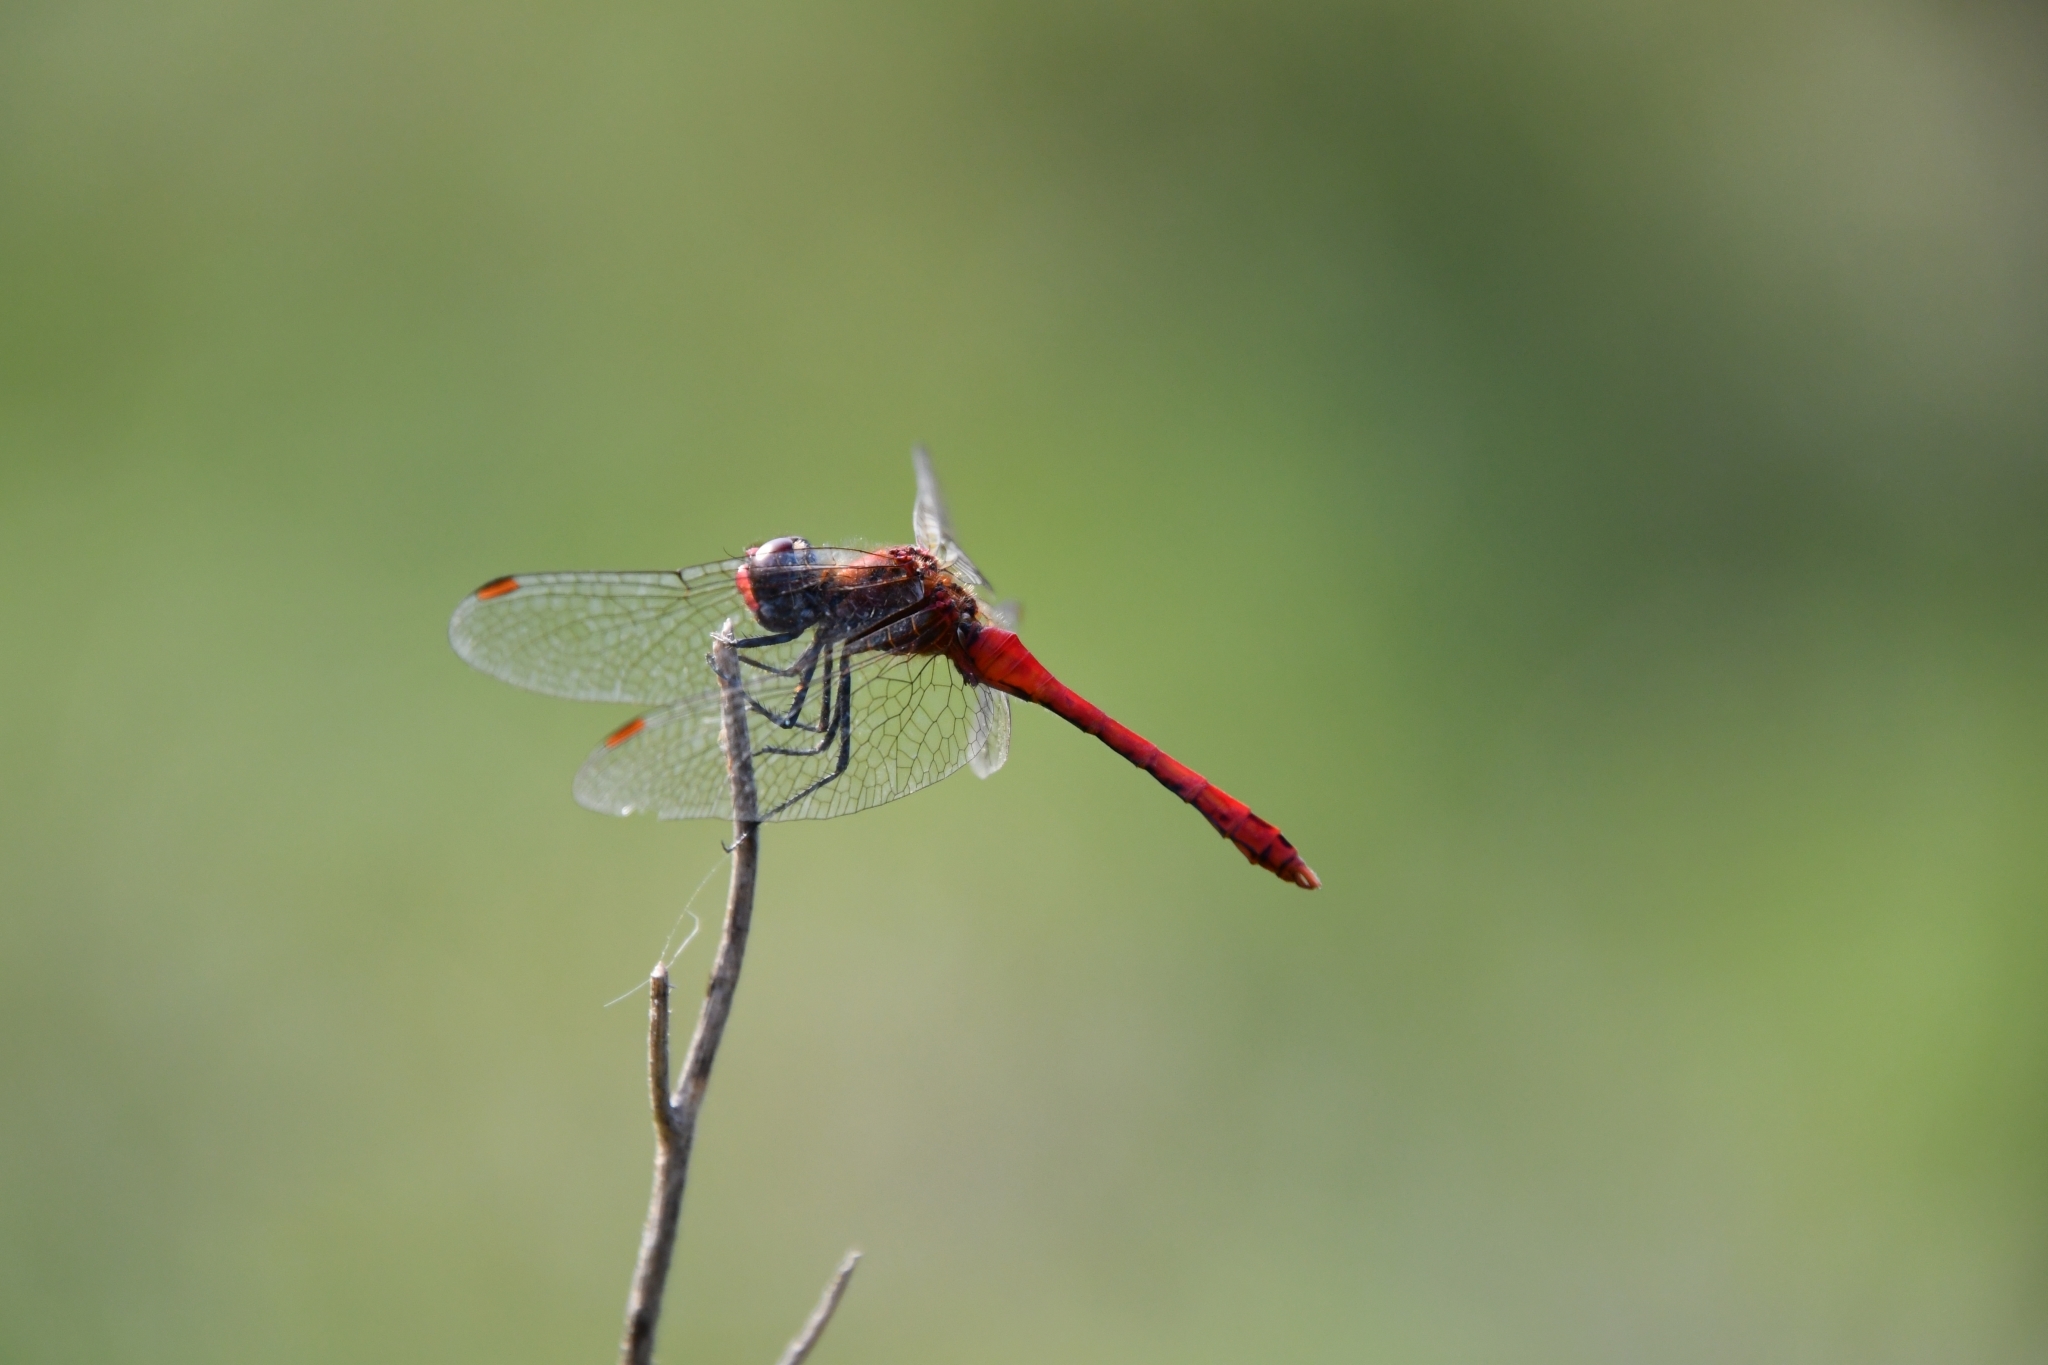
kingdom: Animalia
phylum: Arthropoda
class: Insecta
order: Odonata
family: Libellulidae
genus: Sympetrum
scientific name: Sympetrum sanguineum
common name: Ruddy darter
